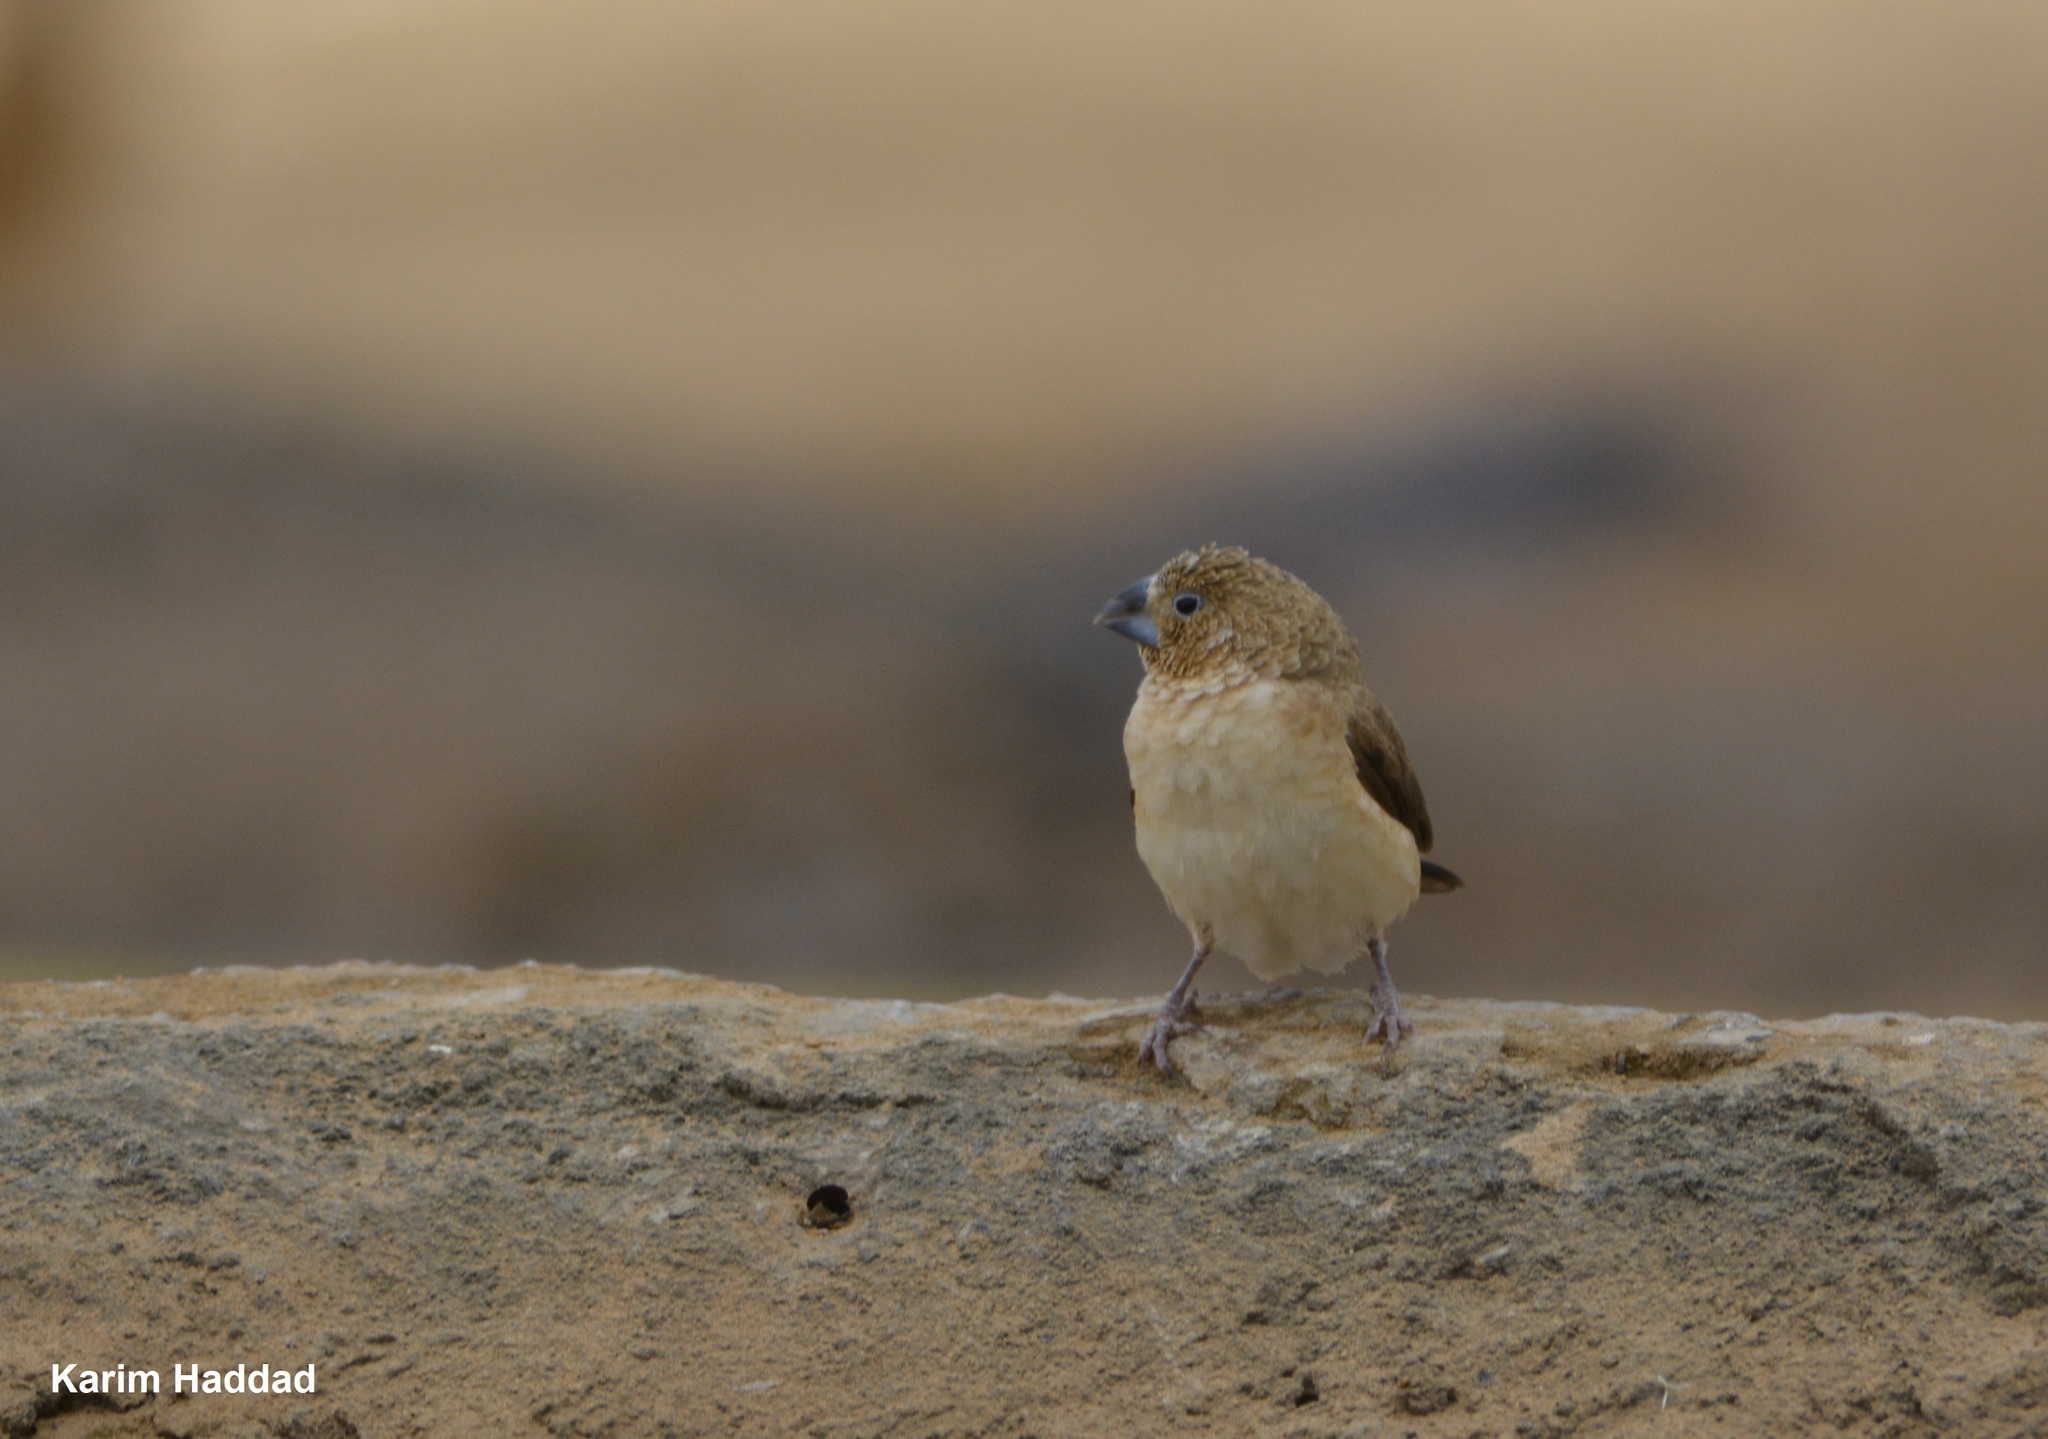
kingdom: Animalia
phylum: Chordata
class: Aves
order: Passeriformes
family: Estrildidae
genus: Euodice
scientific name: Euodice cantans
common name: African silverbill
